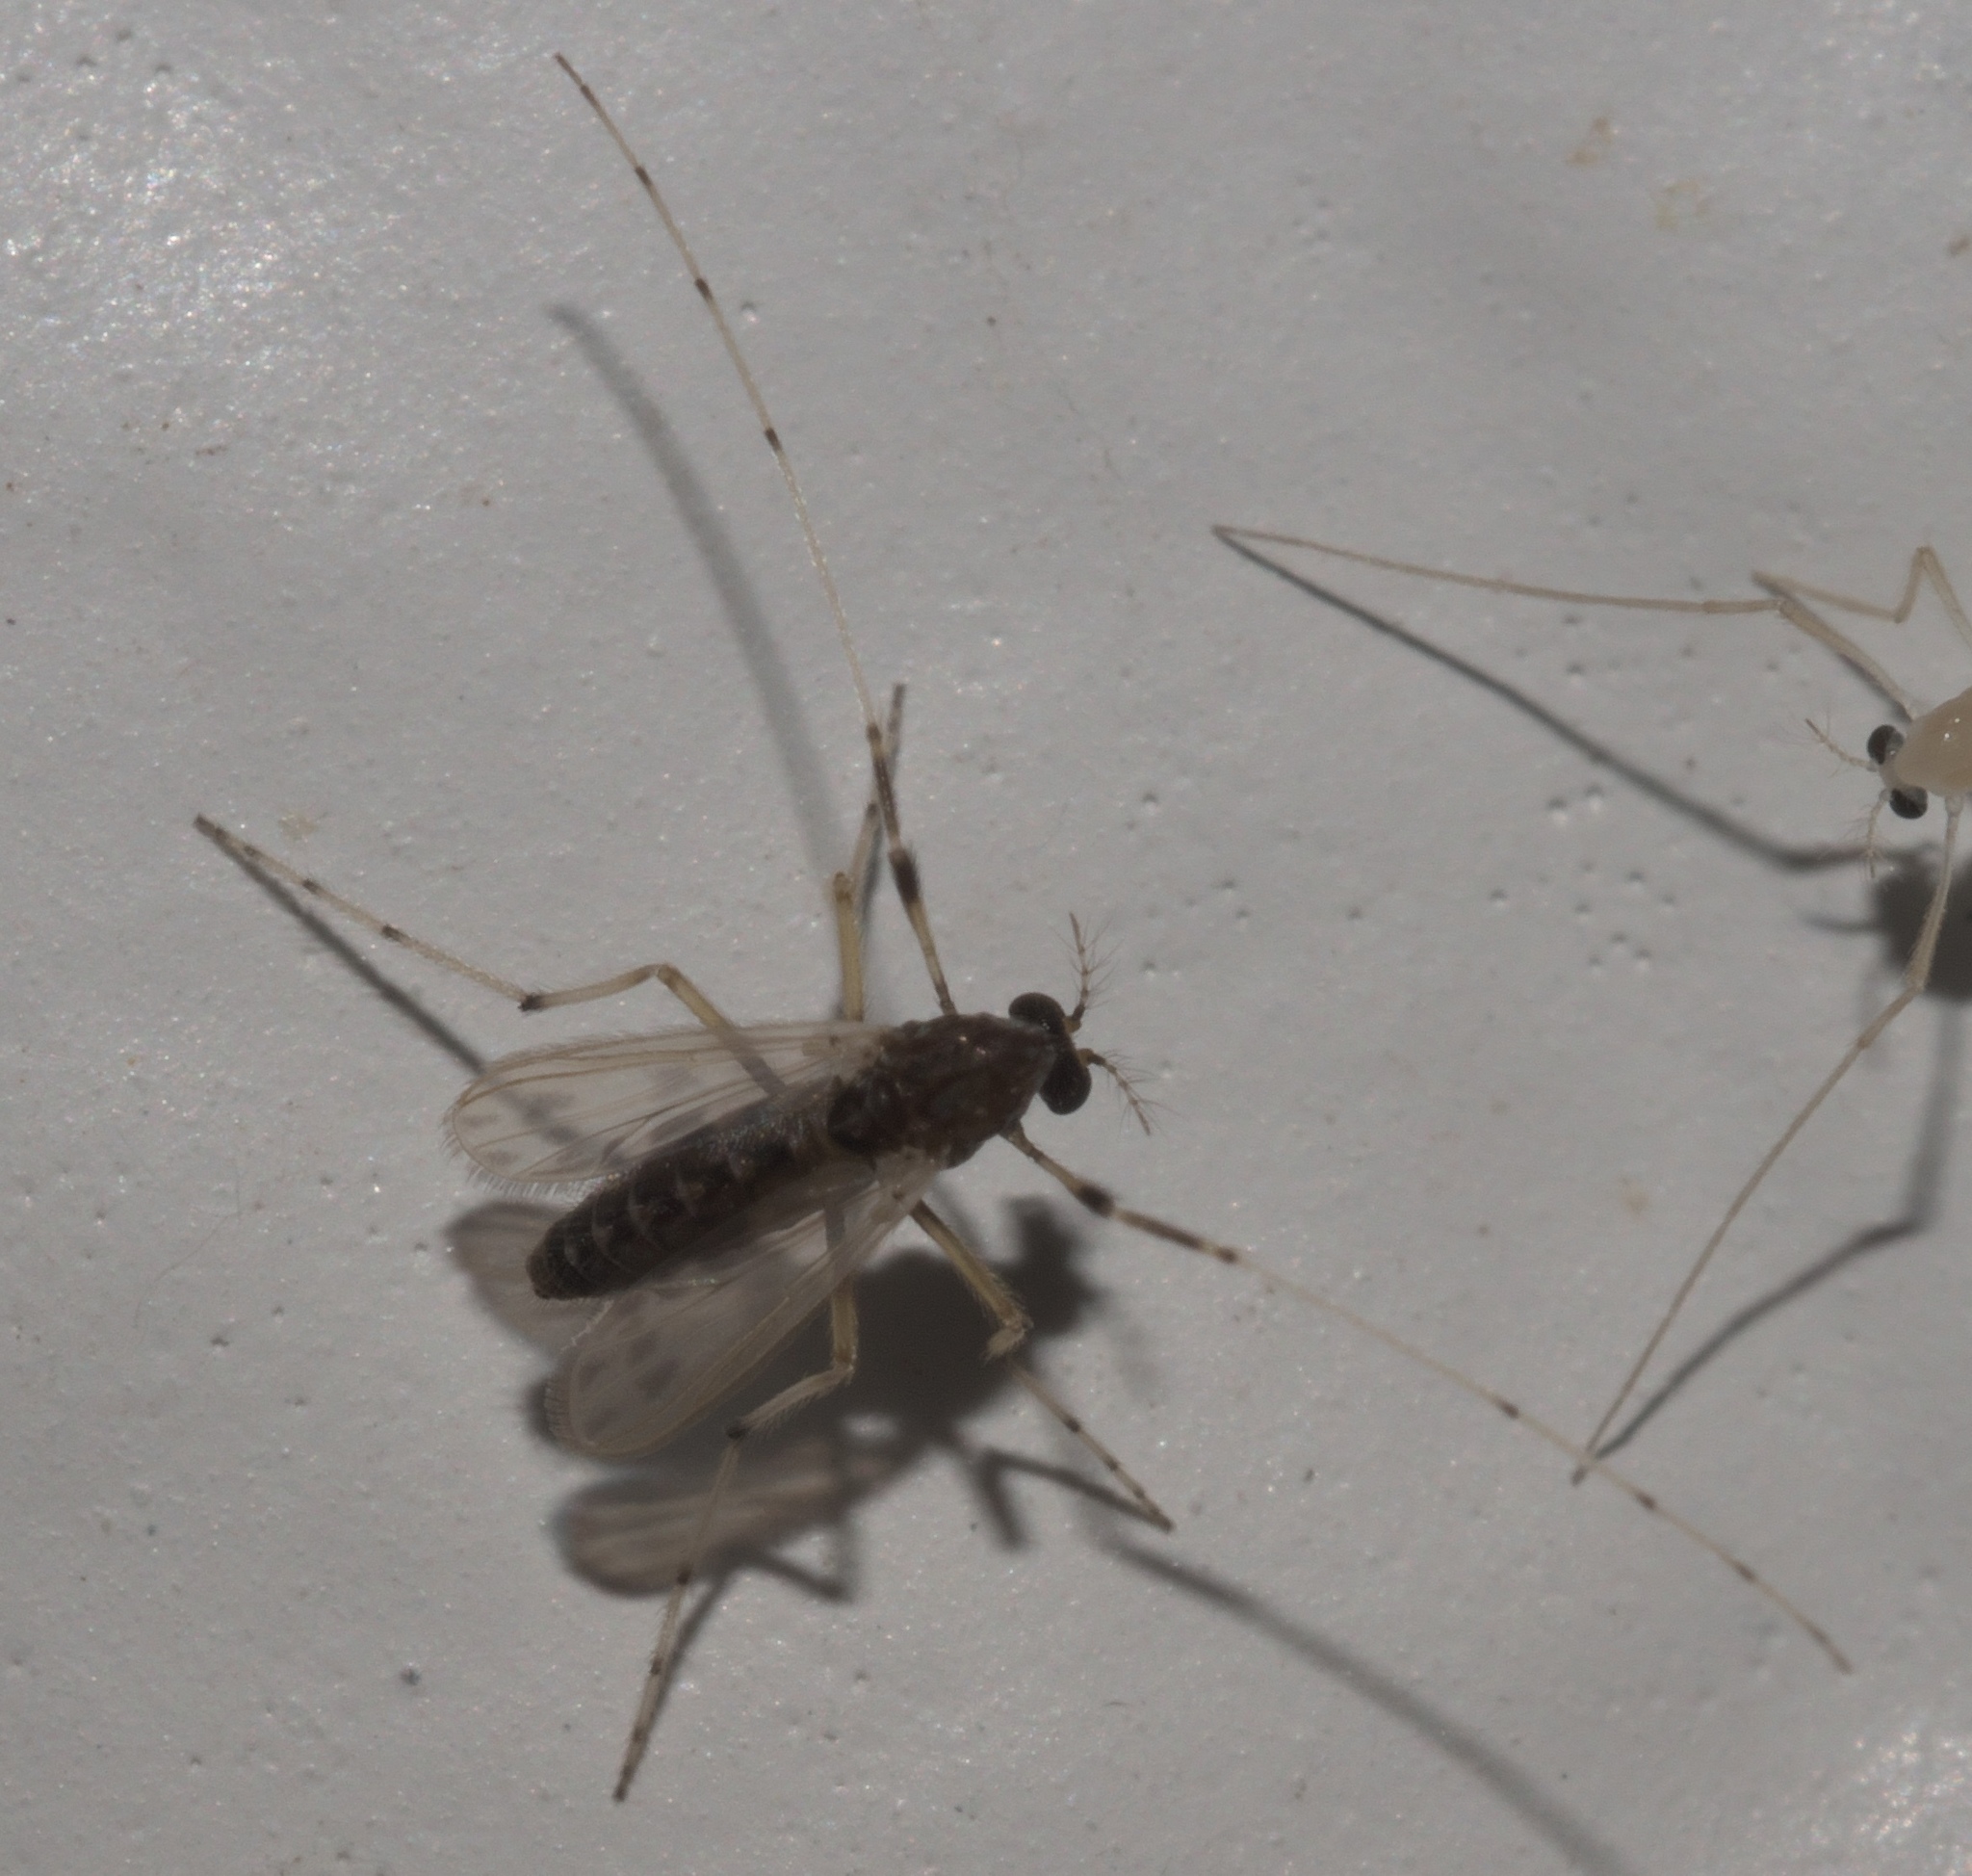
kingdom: Animalia
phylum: Arthropoda
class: Insecta
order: Diptera
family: Chironomidae
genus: Zavreliella
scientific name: Zavreliella marmorata
